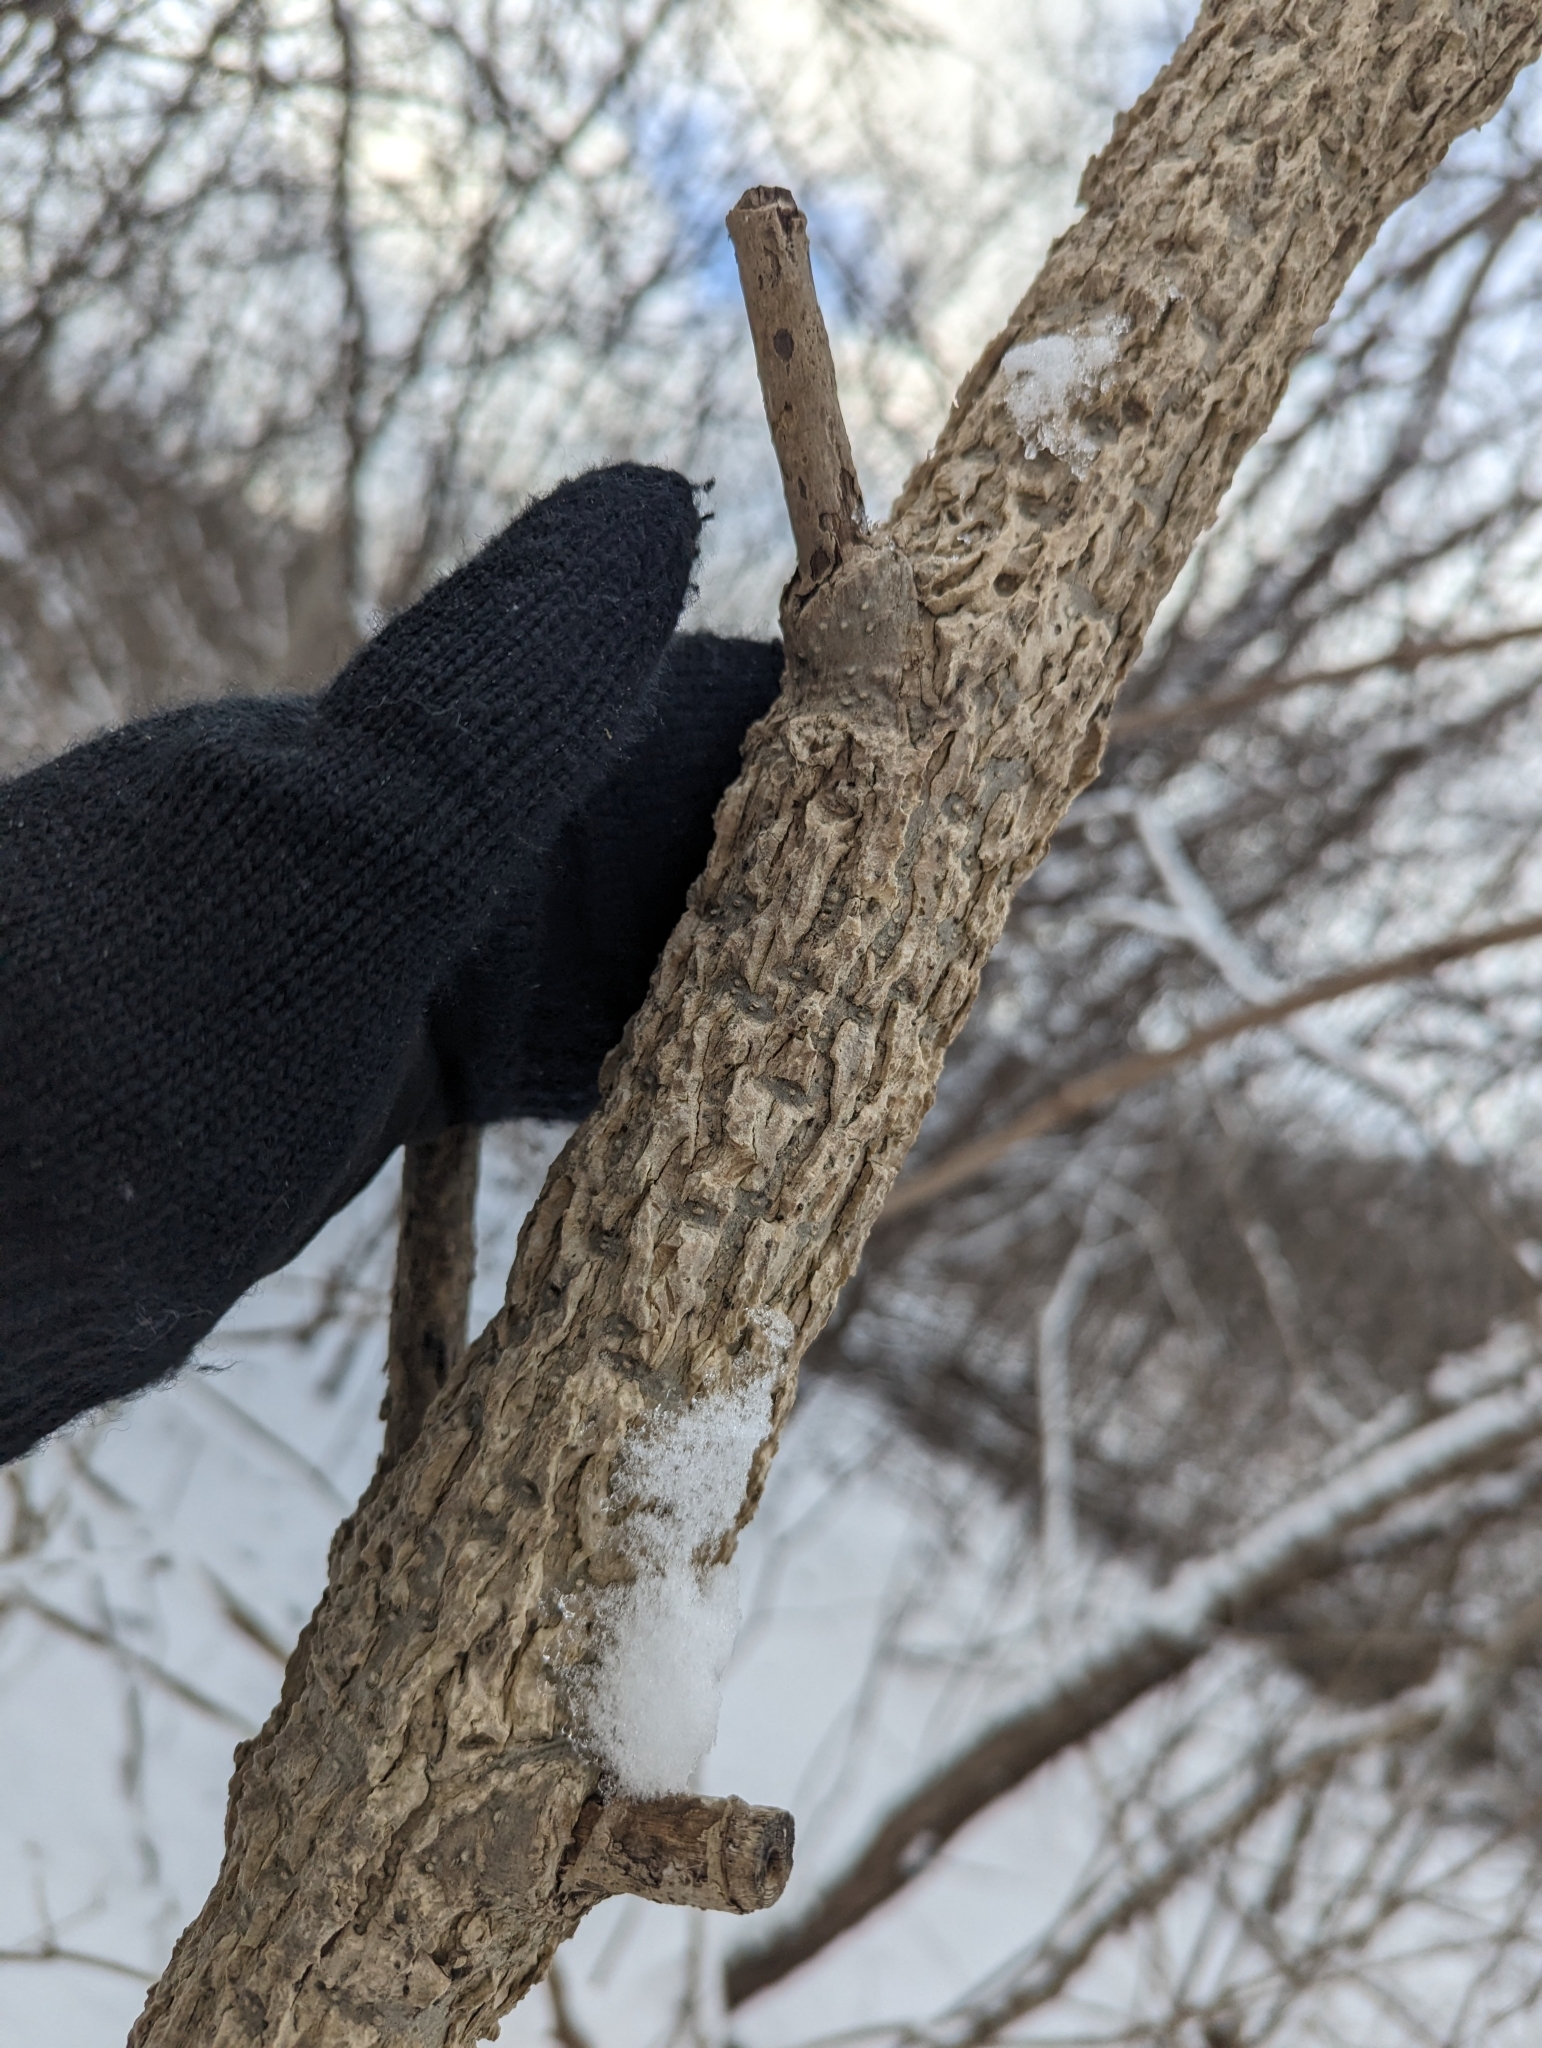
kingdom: Plantae
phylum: Tracheophyta
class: Magnoliopsida
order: Lamiales
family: Oleaceae
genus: Fraxinus
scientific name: Fraxinus nigra
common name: Black ash
